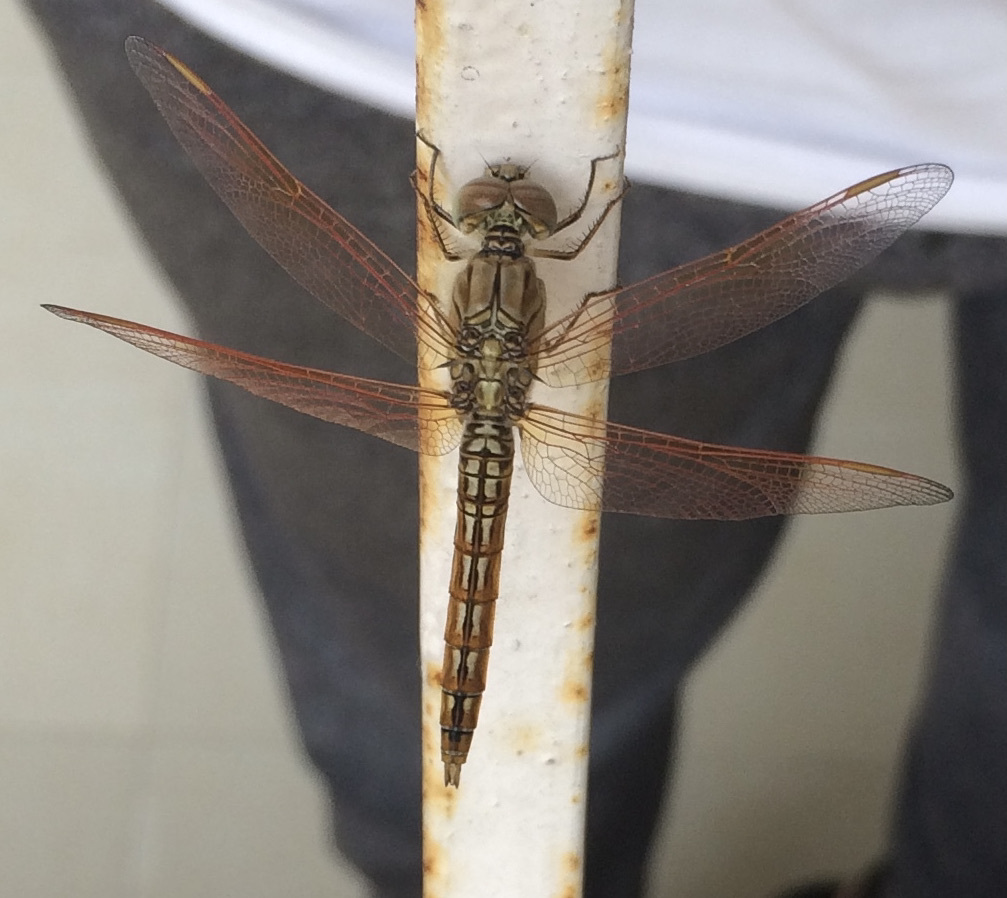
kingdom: Animalia
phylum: Arthropoda
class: Insecta
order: Odonata
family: Libellulidae
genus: Brachythemis
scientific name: Brachythemis contaminata
